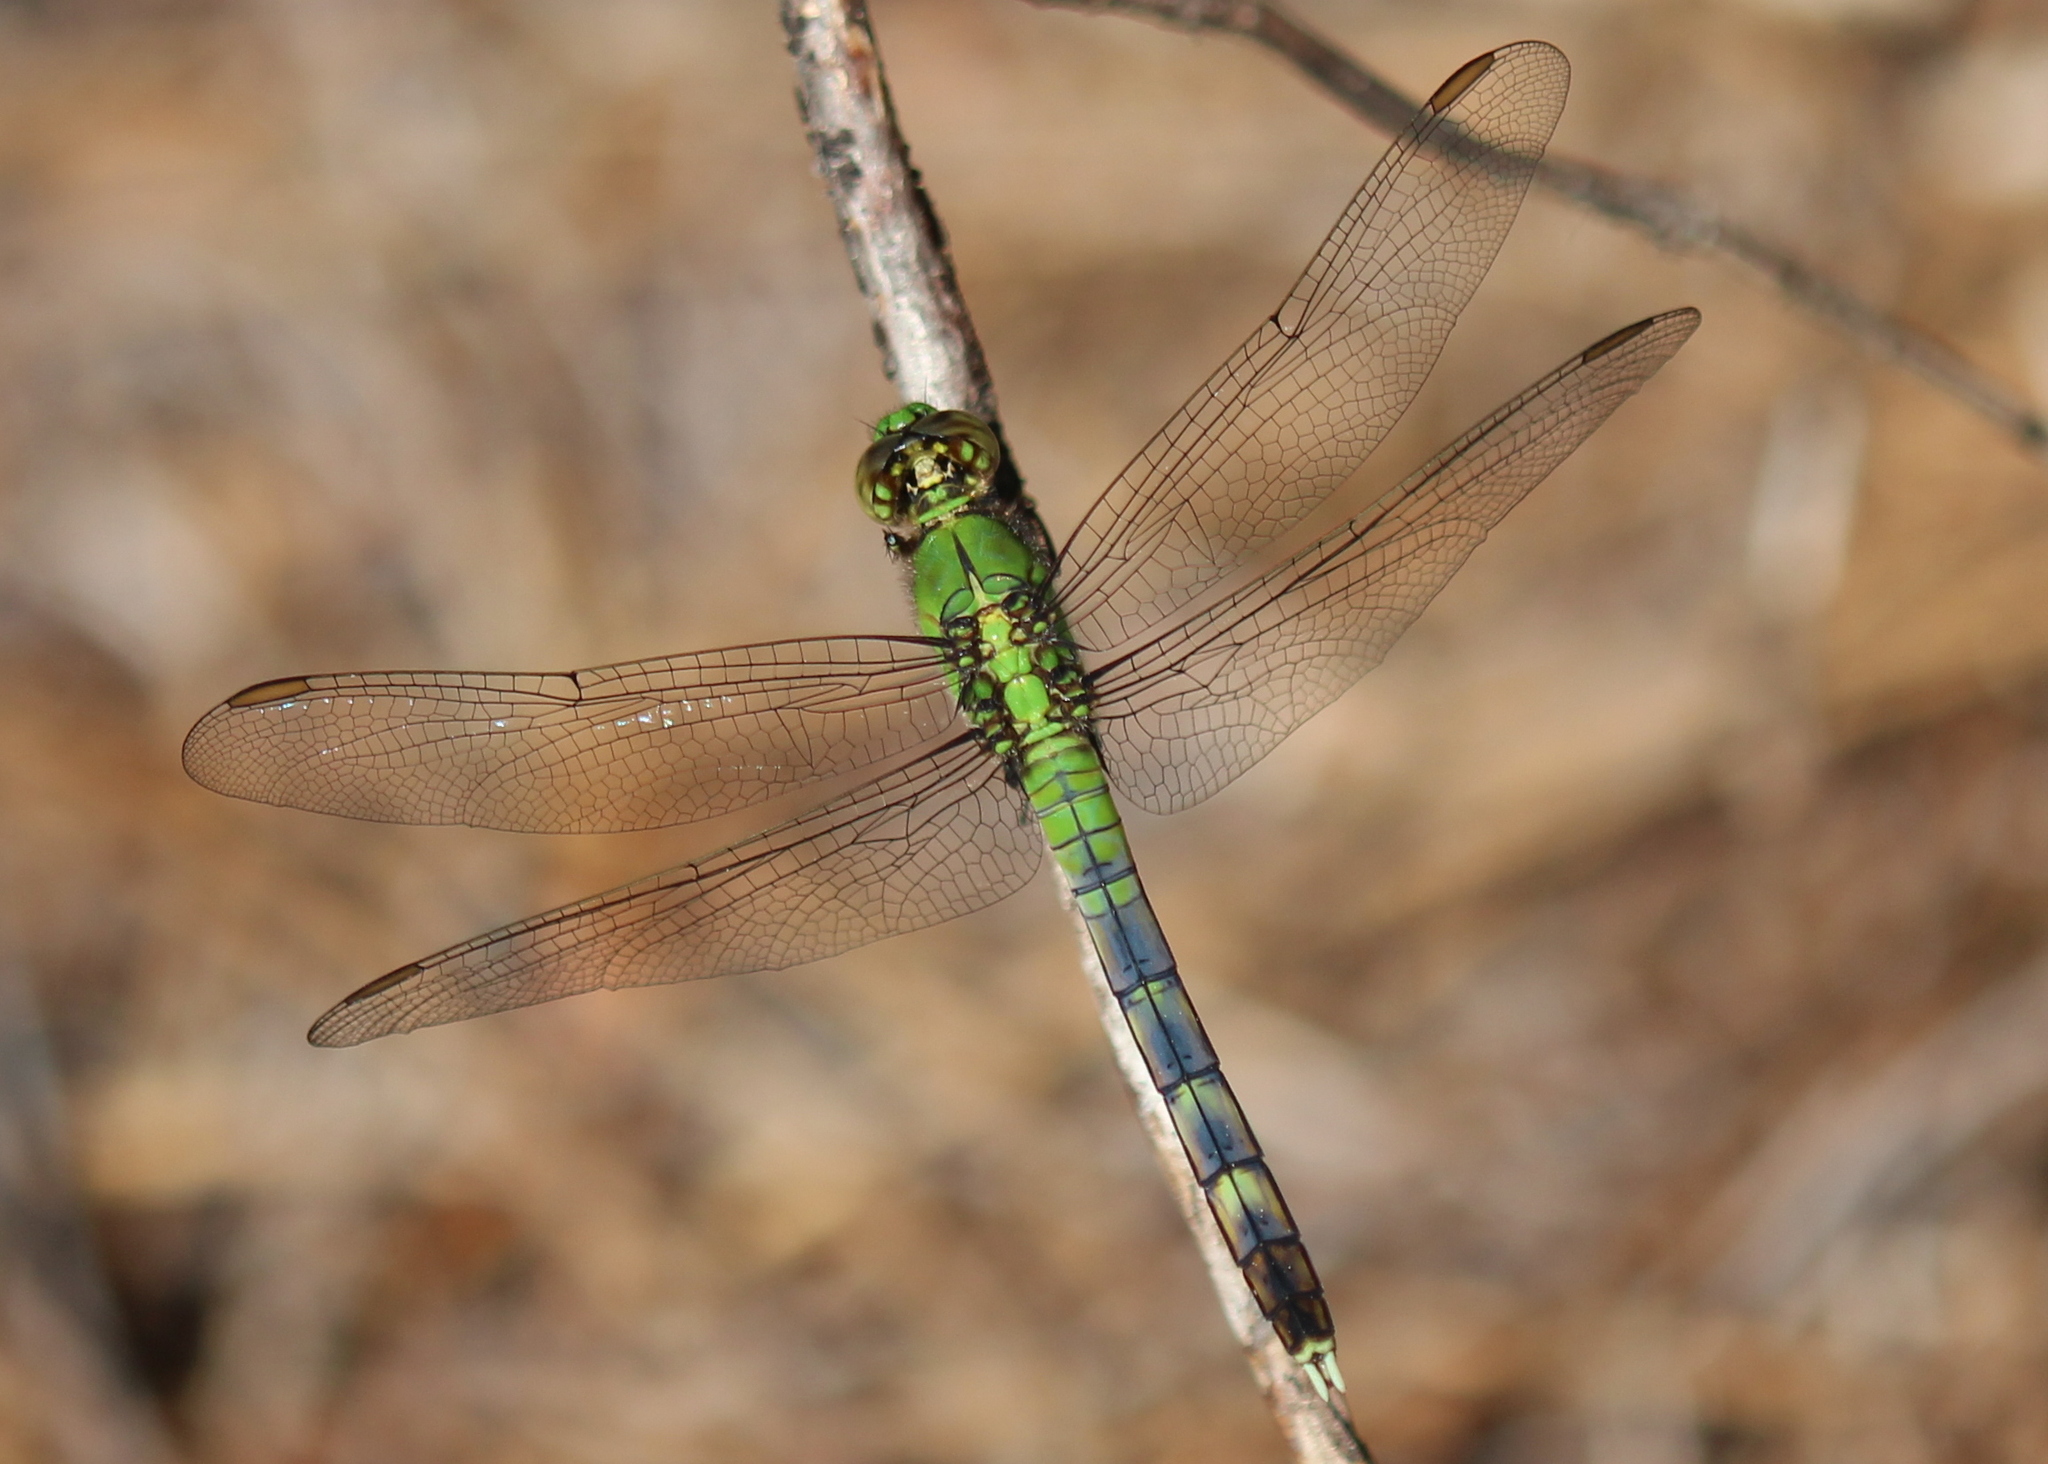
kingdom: Animalia
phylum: Arthropoda
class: Insecta
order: Odonata
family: Libellulidae
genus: Erythemis
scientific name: Erythemis simplicicollis
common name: Eastern pondhawk
